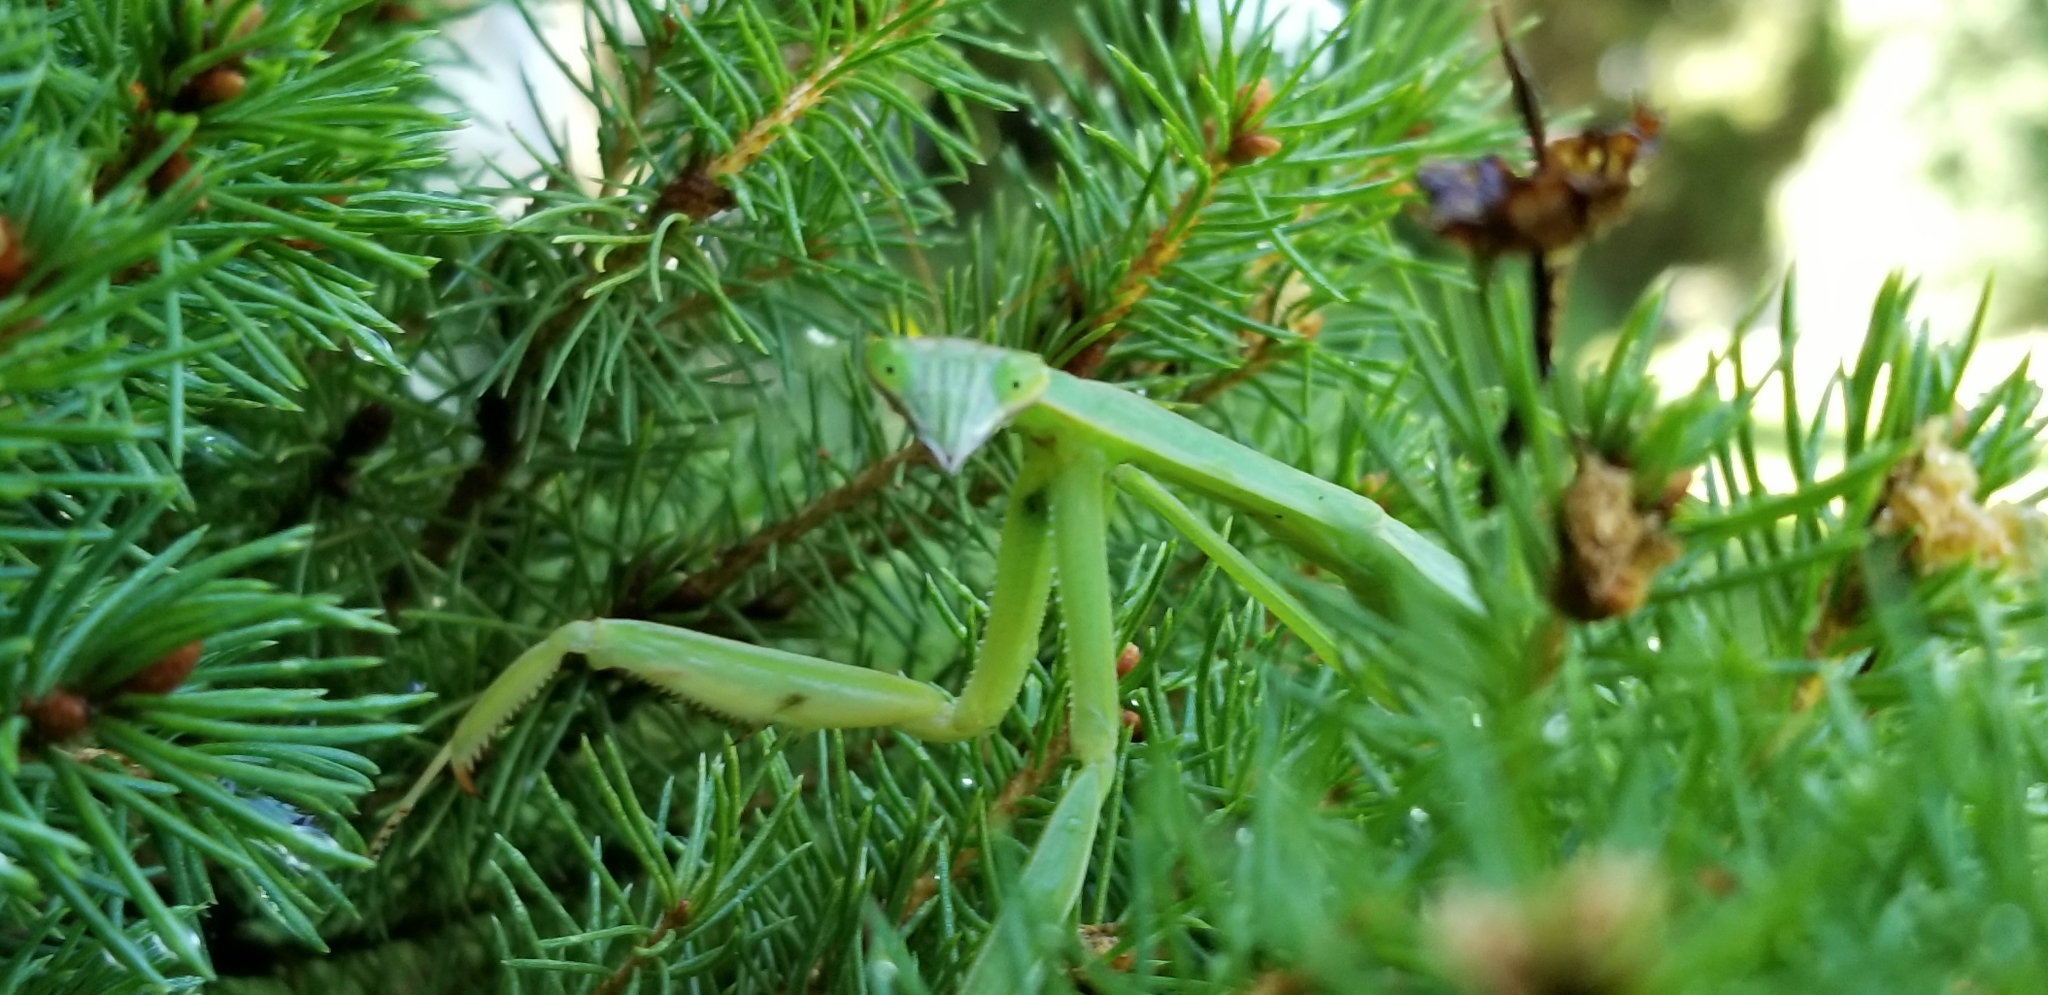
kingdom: Animalia
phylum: Arthropoda
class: Insecta
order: Mantodea
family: Mantidae
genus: Tenodera
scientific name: Tenodera sinensis
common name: Chinese mantis
